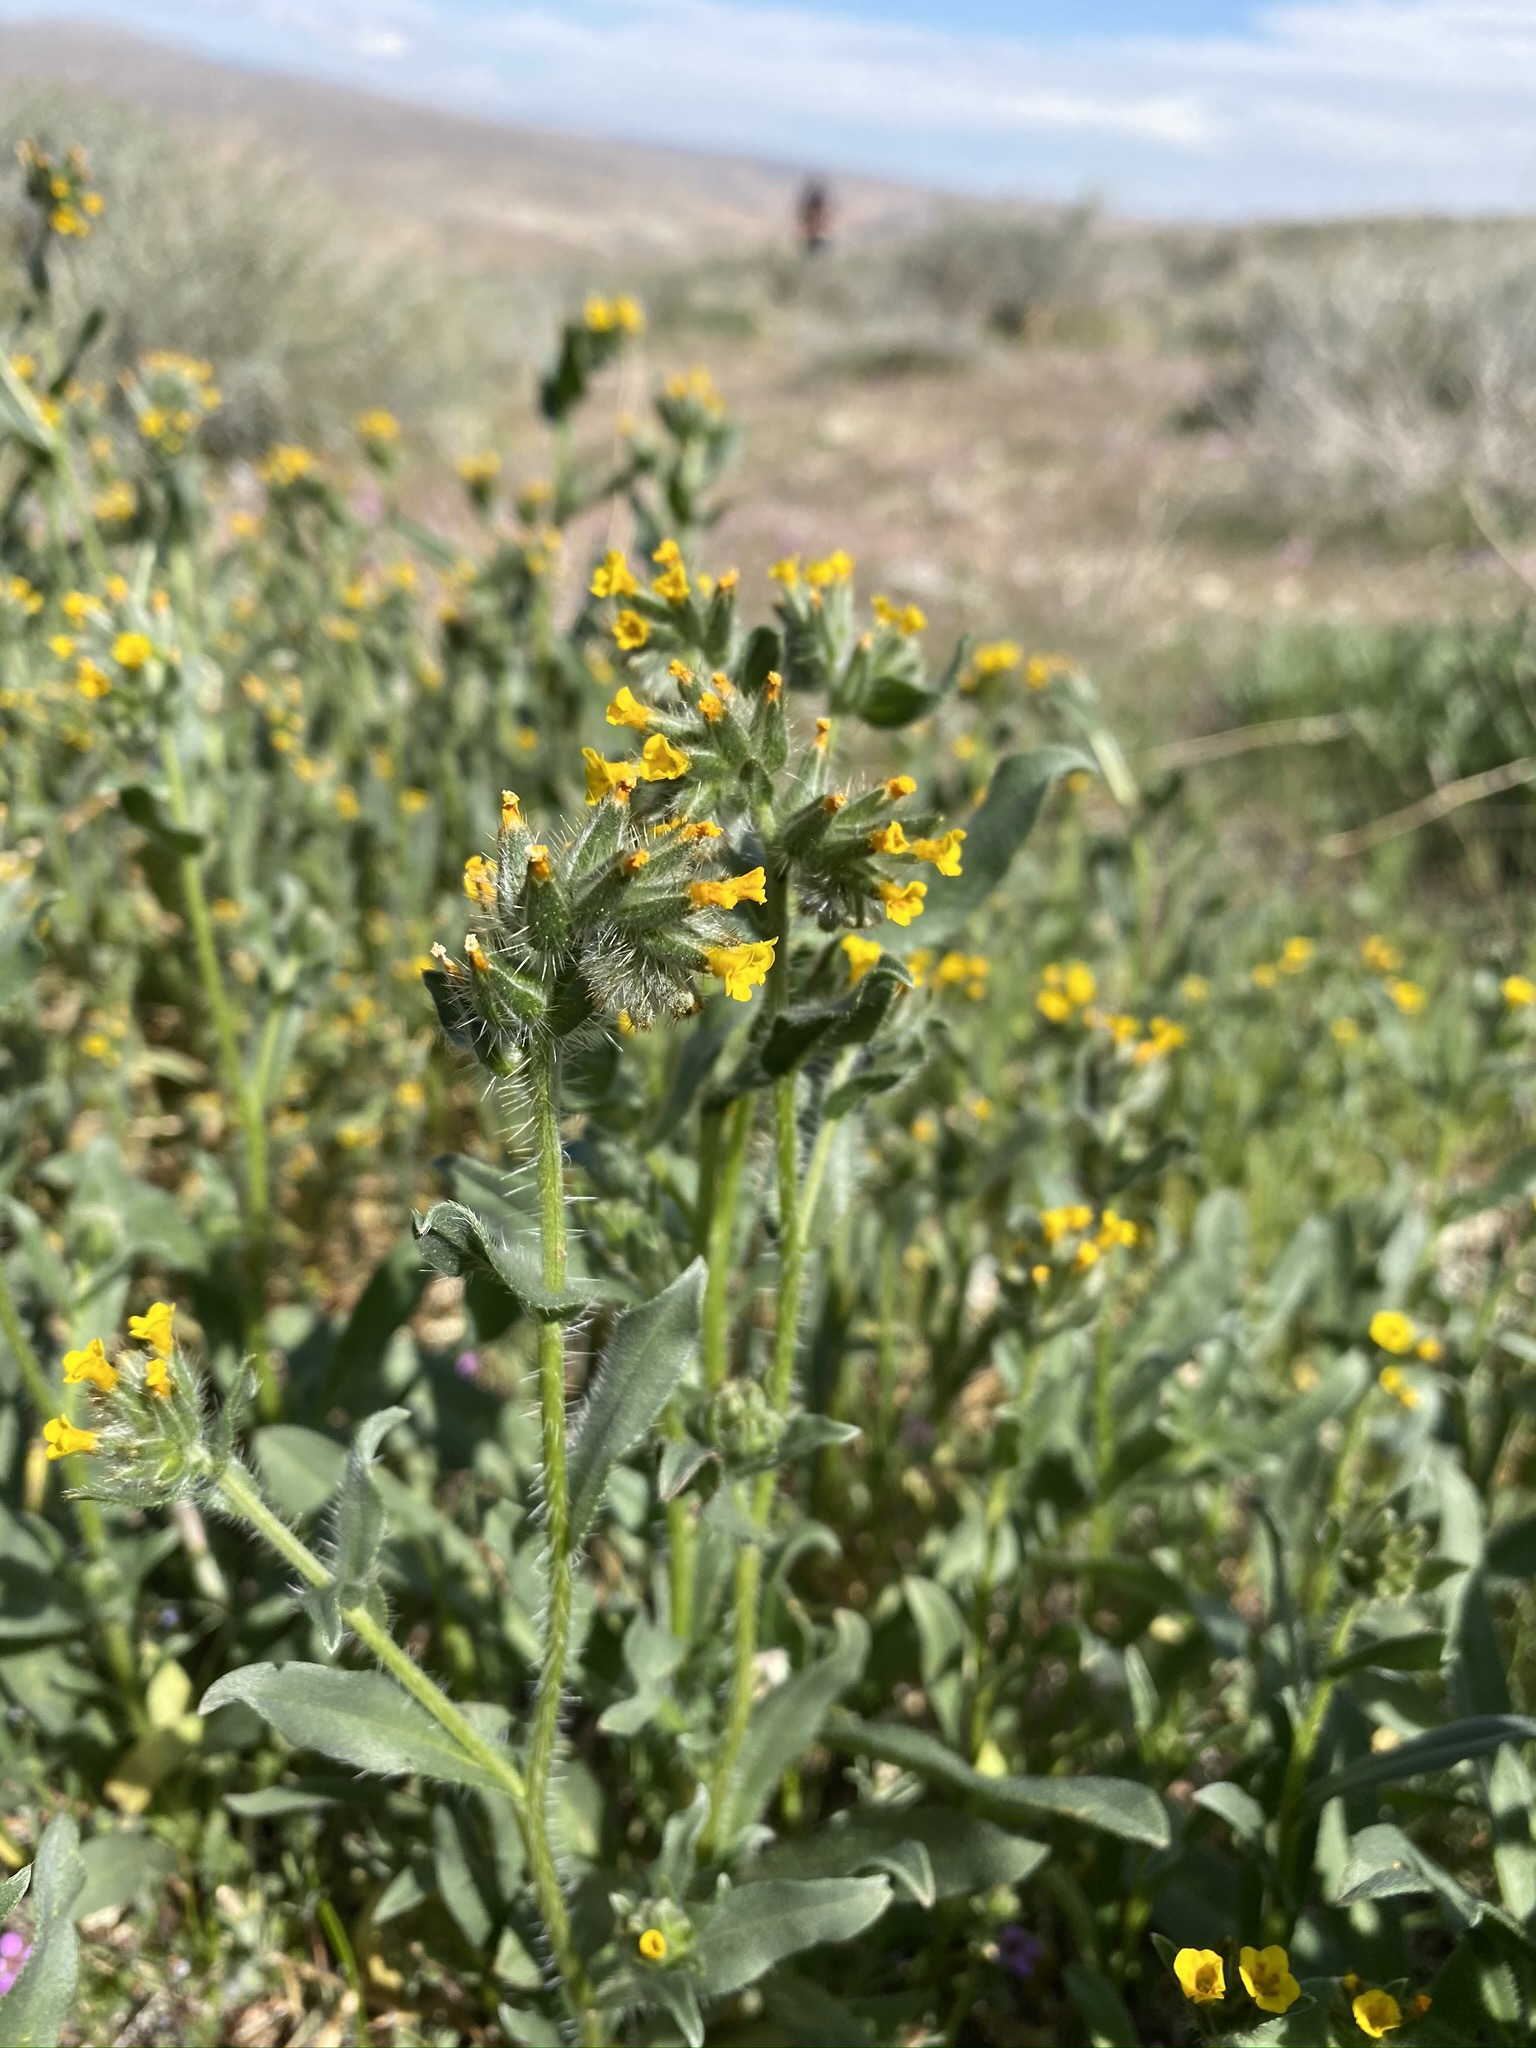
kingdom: Plantae
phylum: Tracheophyta
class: Magnoliopsida
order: Boraginales
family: Boraginaceae
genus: Amsinckia
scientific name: Amsinckia tessellata
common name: Tessellate fiddleneck
